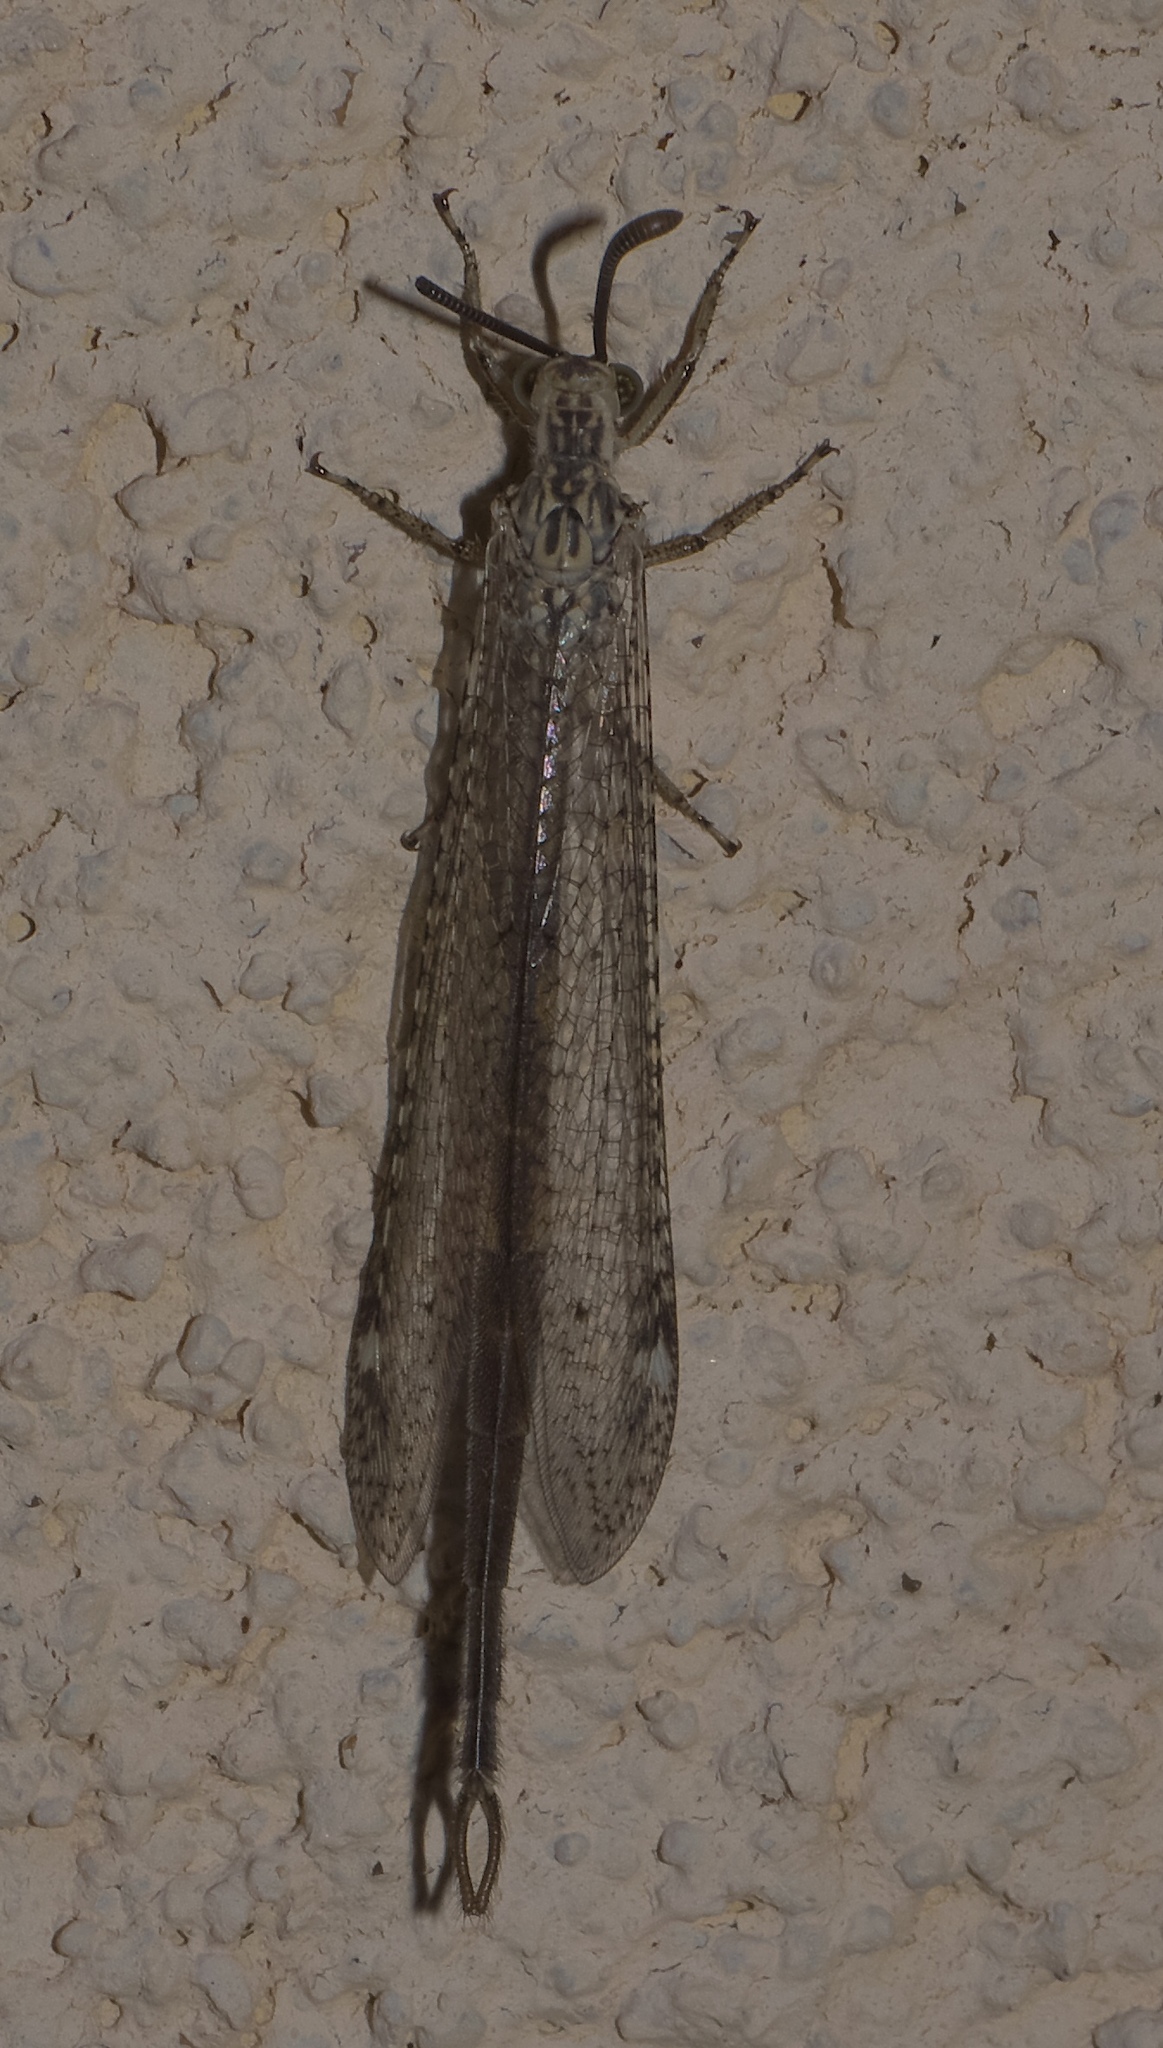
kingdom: Animalia
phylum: Arthropoda
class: Insecta
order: Neuroptera
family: Myrmeleontidae
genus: Scotoleon
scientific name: Scotoleon carrizonus
